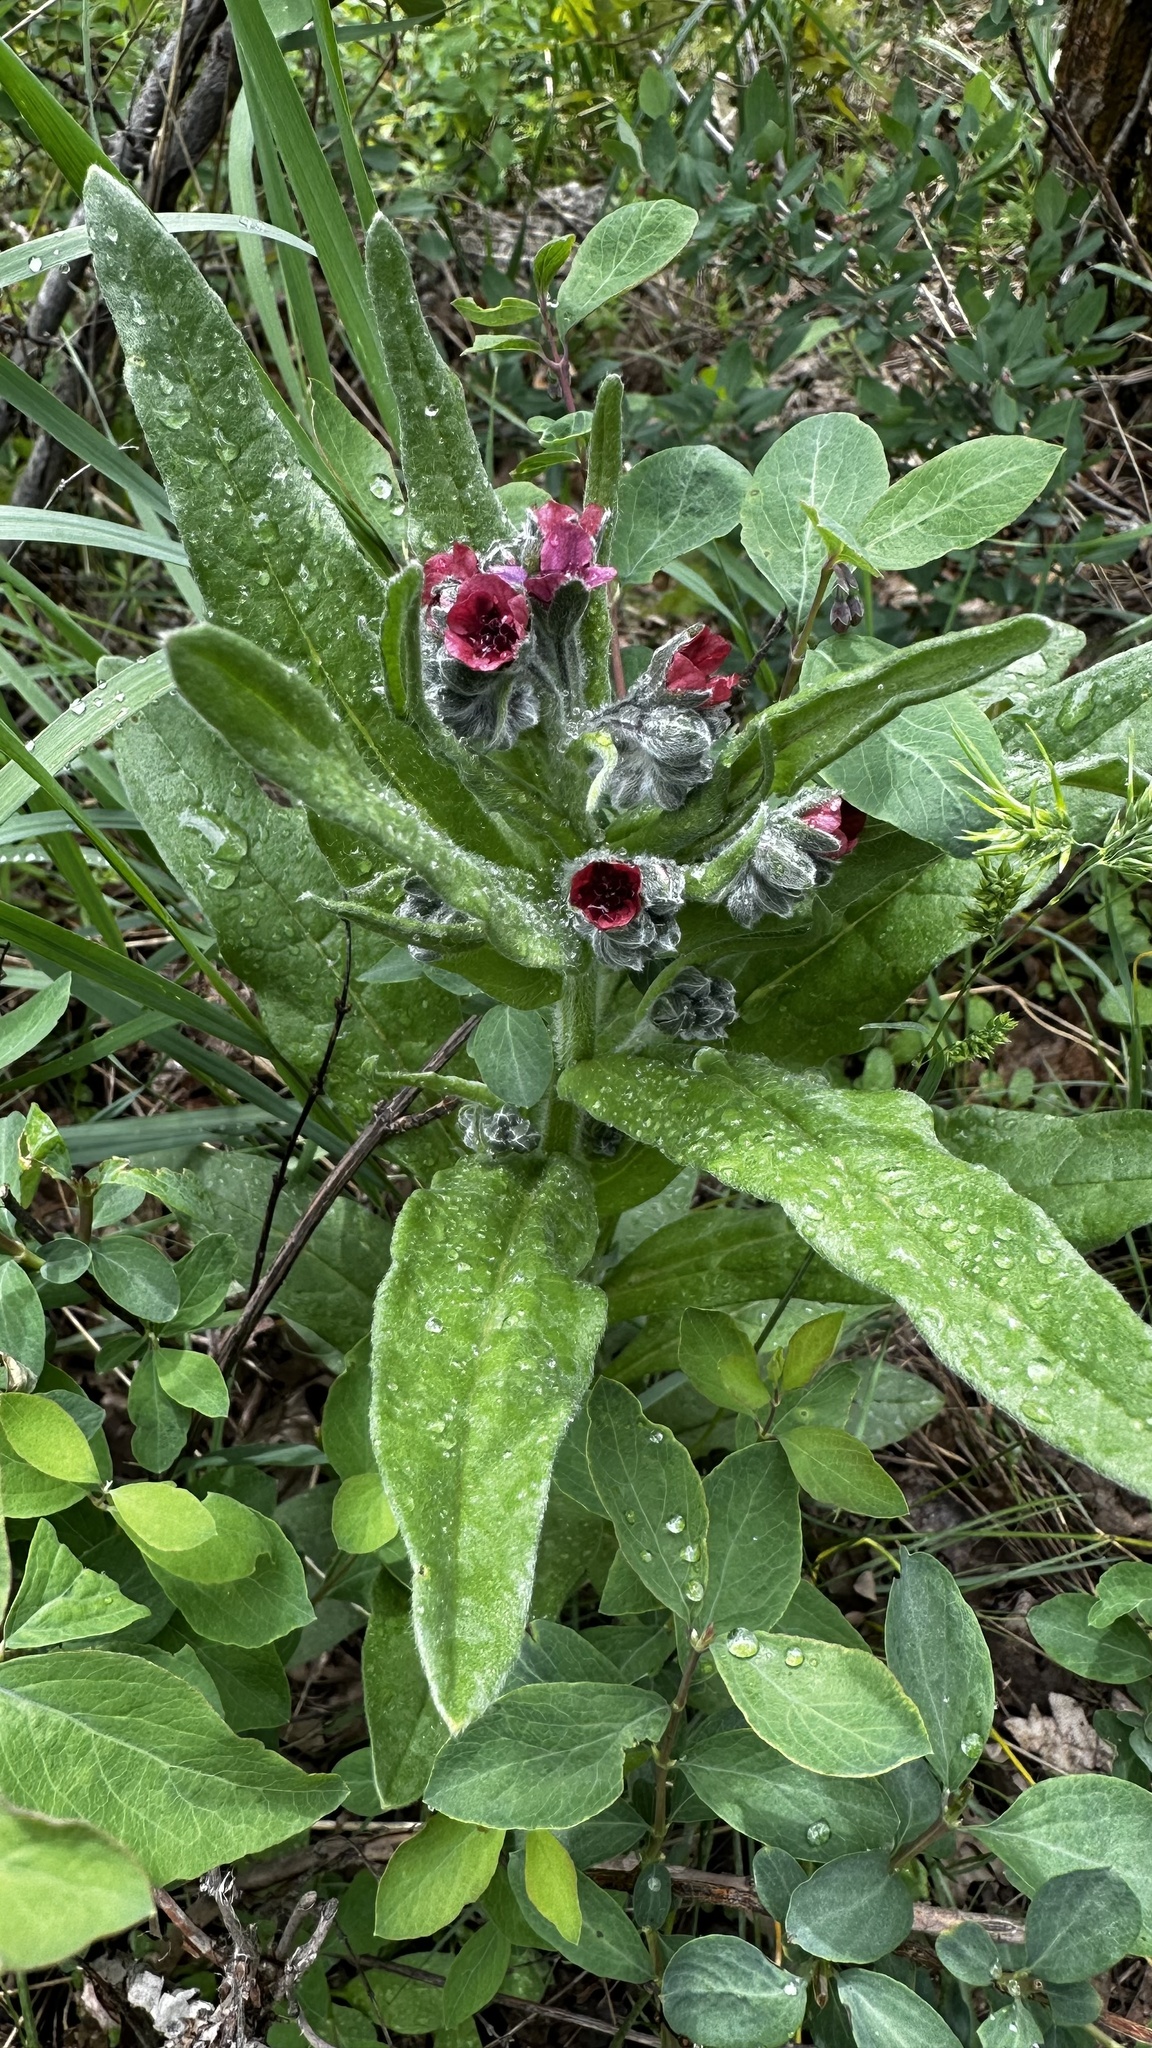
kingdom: Plantae
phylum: Tracheophyta
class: Magnoliopsida
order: Boraginales
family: Boraginaceae
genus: Cynoglossum
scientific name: Cynoglossum officinale
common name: Hound's-tongue
